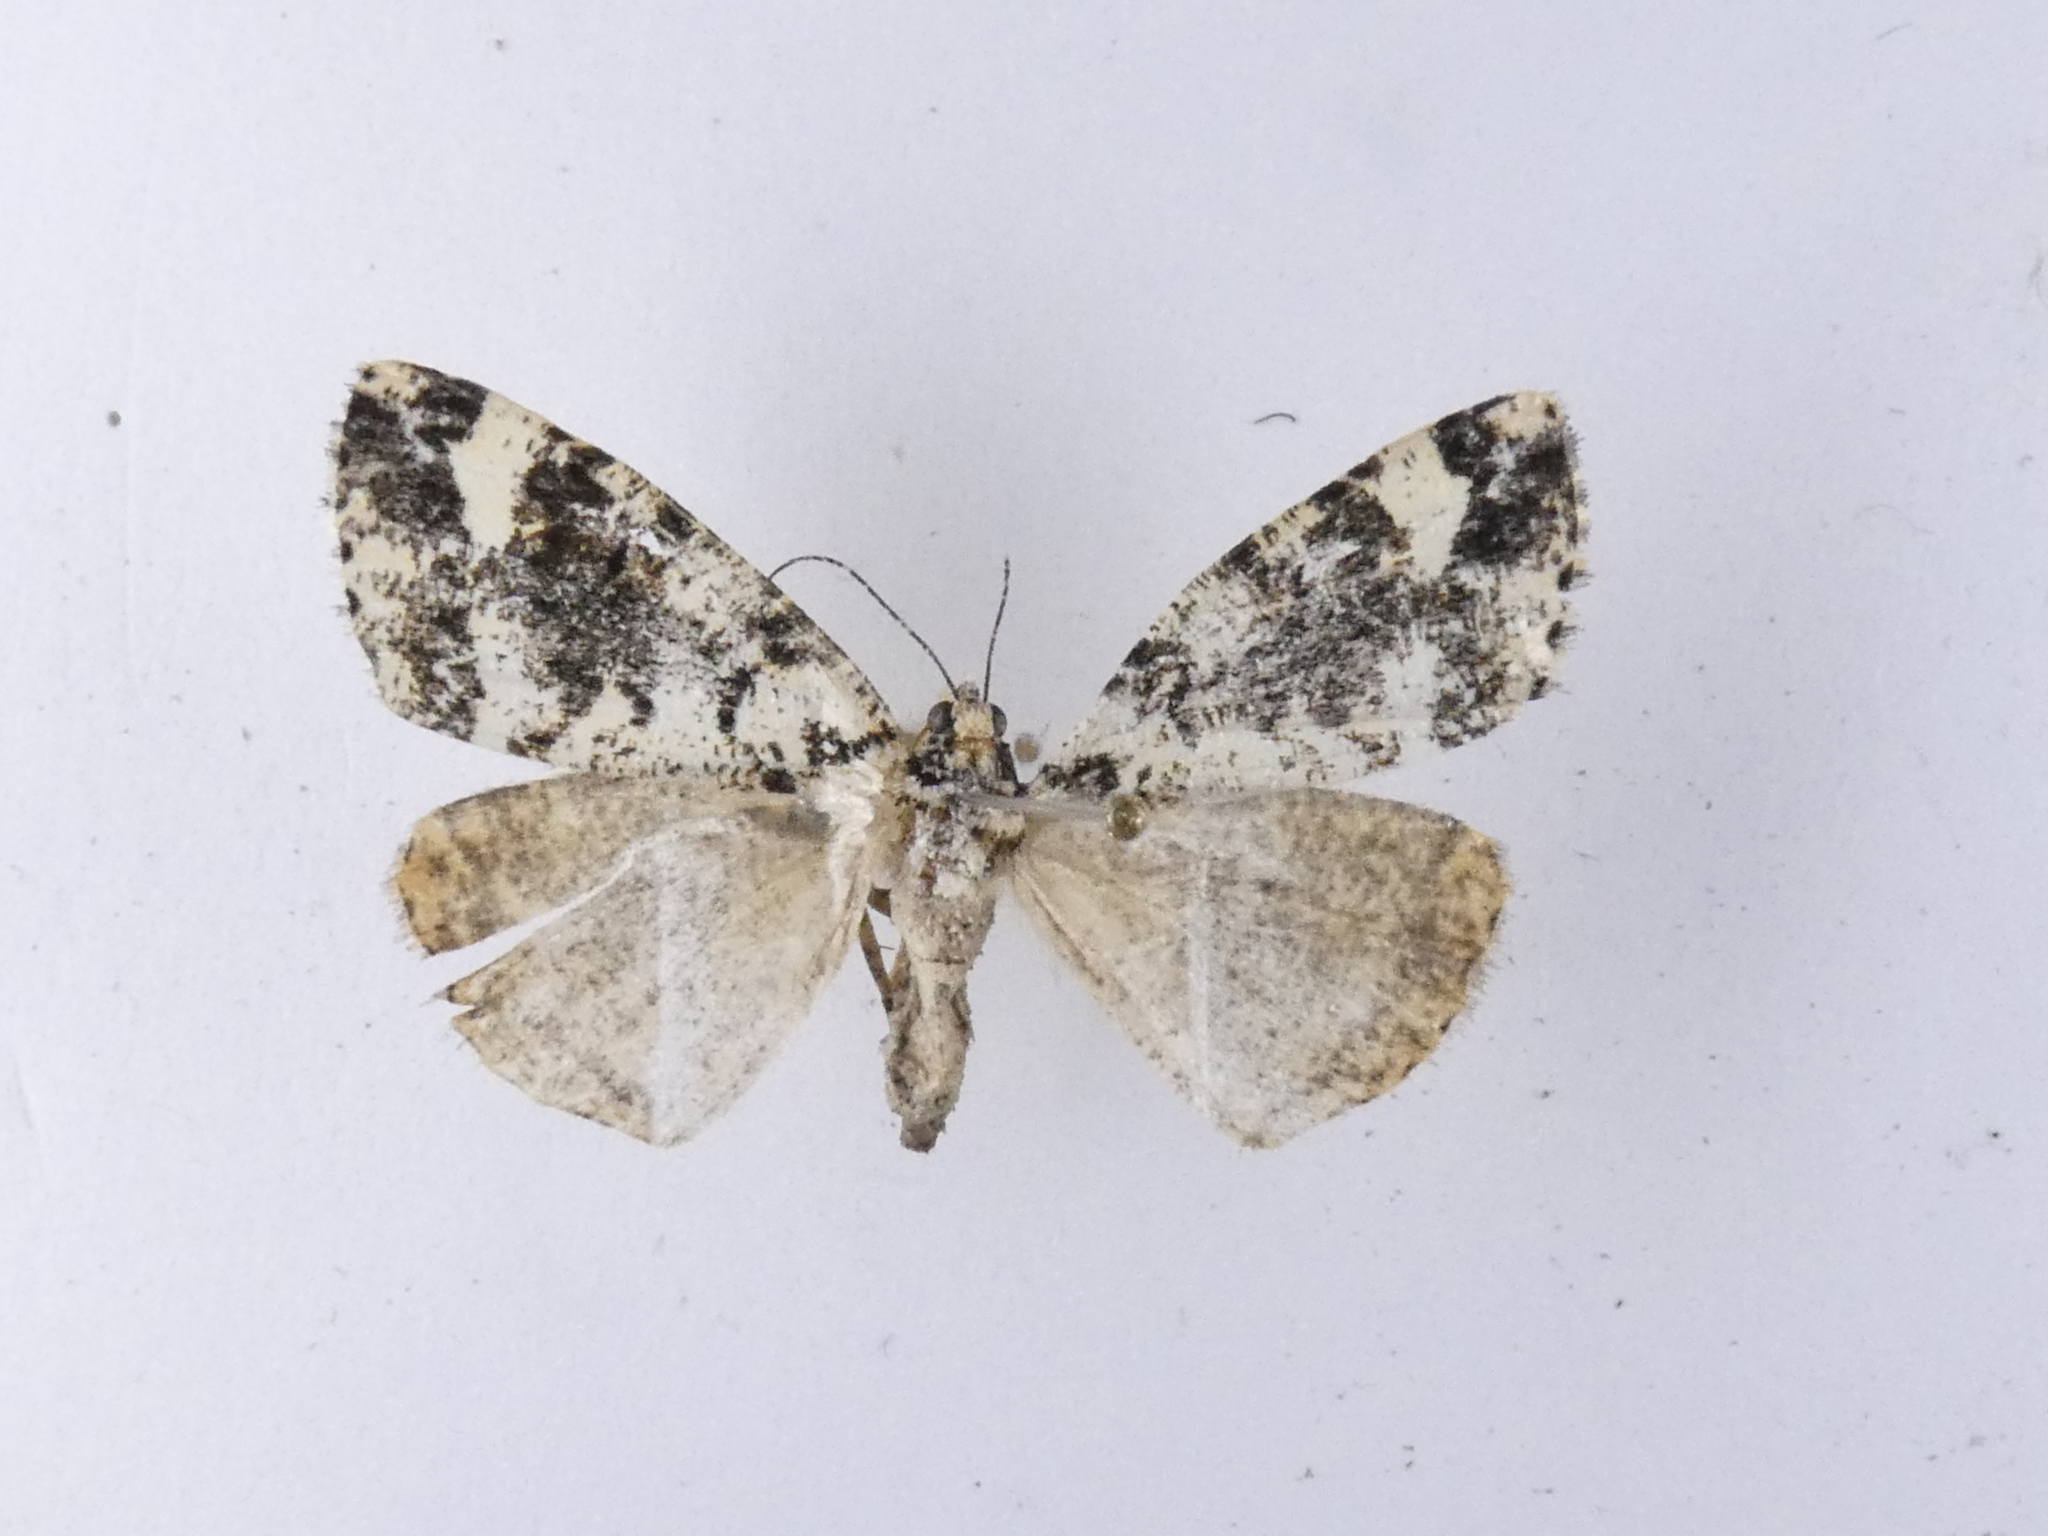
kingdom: Animalia
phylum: Arthropoda
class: Insecta
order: Lepidoptera
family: Geometridae
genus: Pseudocoremia
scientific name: Pseudocoremia leucelaea
